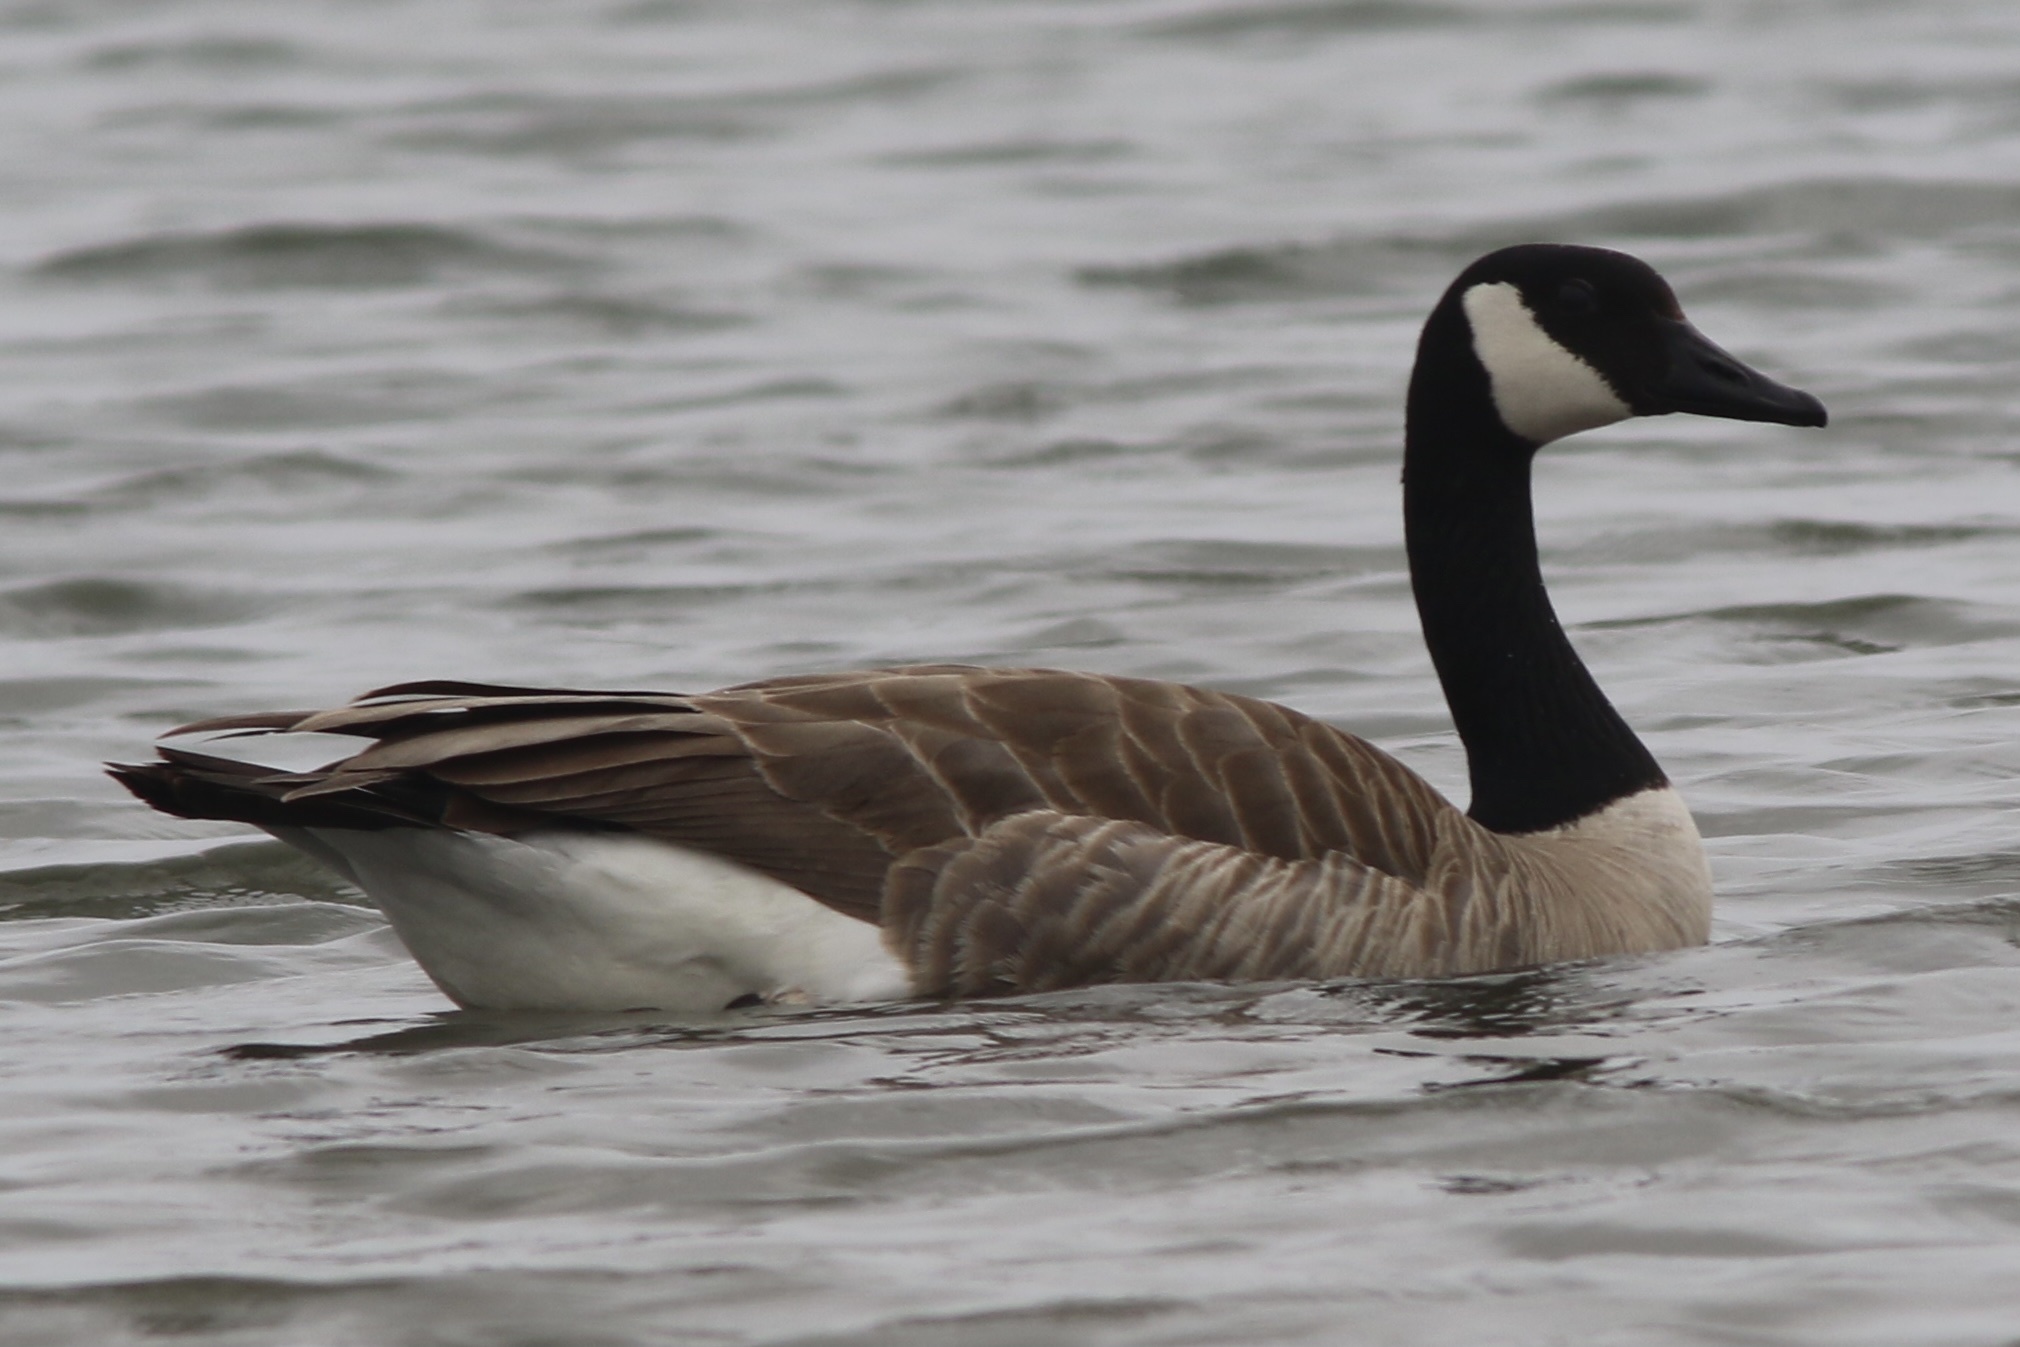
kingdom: Animalia
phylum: Chordata
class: Aves
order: Anseriformes
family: Anatidae
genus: Branta
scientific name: Branta canadensis
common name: Canada goose
